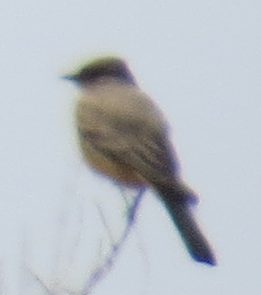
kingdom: Animalia
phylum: Chordata
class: Aves
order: Passeriformes
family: Tyrannidae
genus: Sayornis
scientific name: Sayornis saya
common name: Say's phoebe
